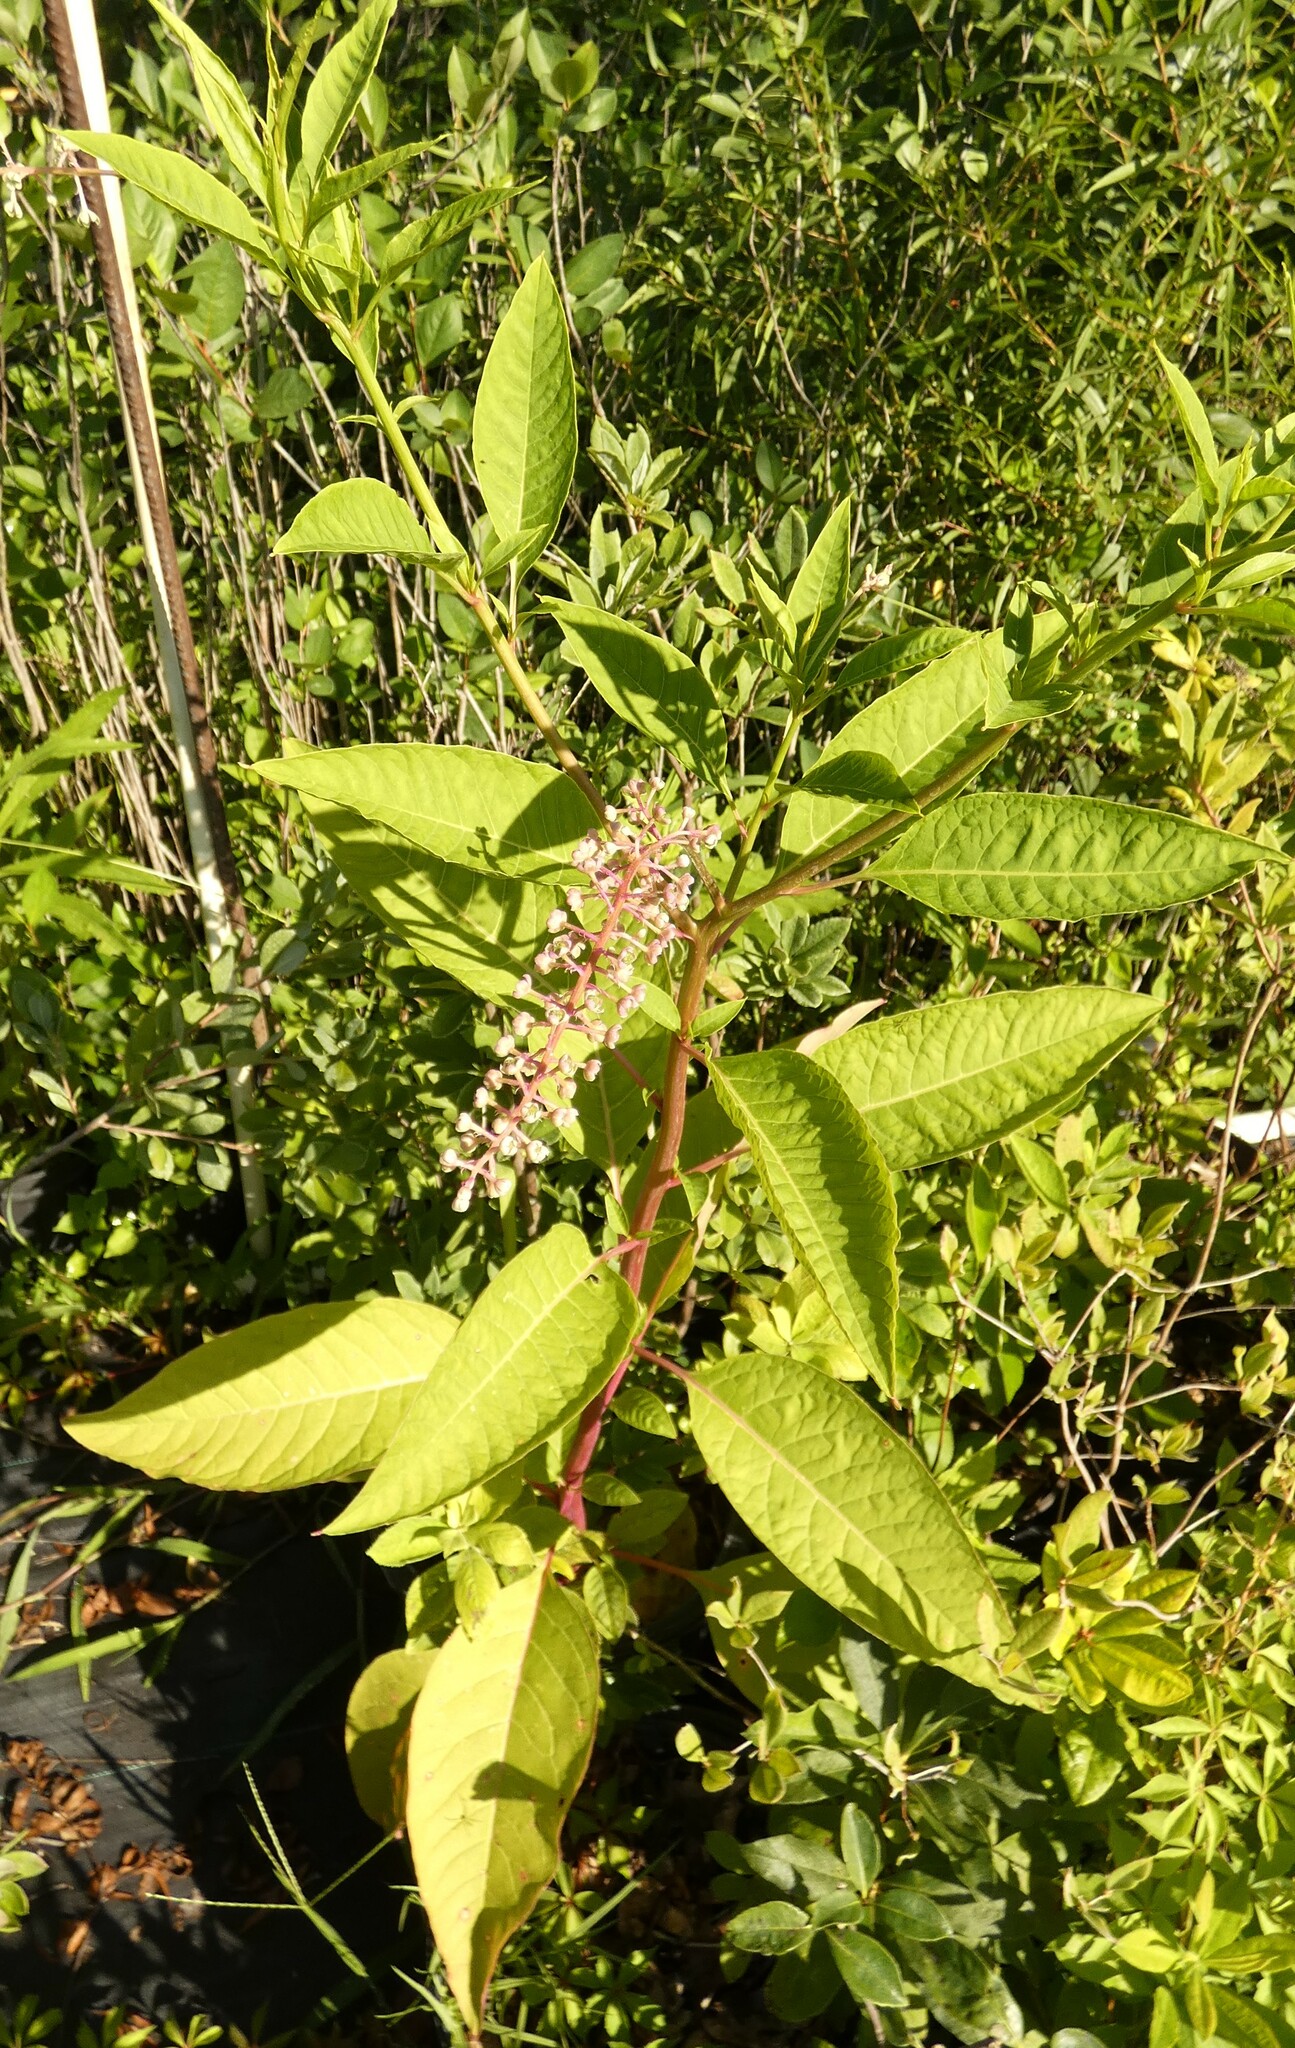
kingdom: Plantae
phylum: Tracheophyta
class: Magnoliopsida
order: Caryophyllales
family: Phytolaccaceae
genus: Phytolacca
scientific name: Phytolacca americana
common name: American pokeweed
